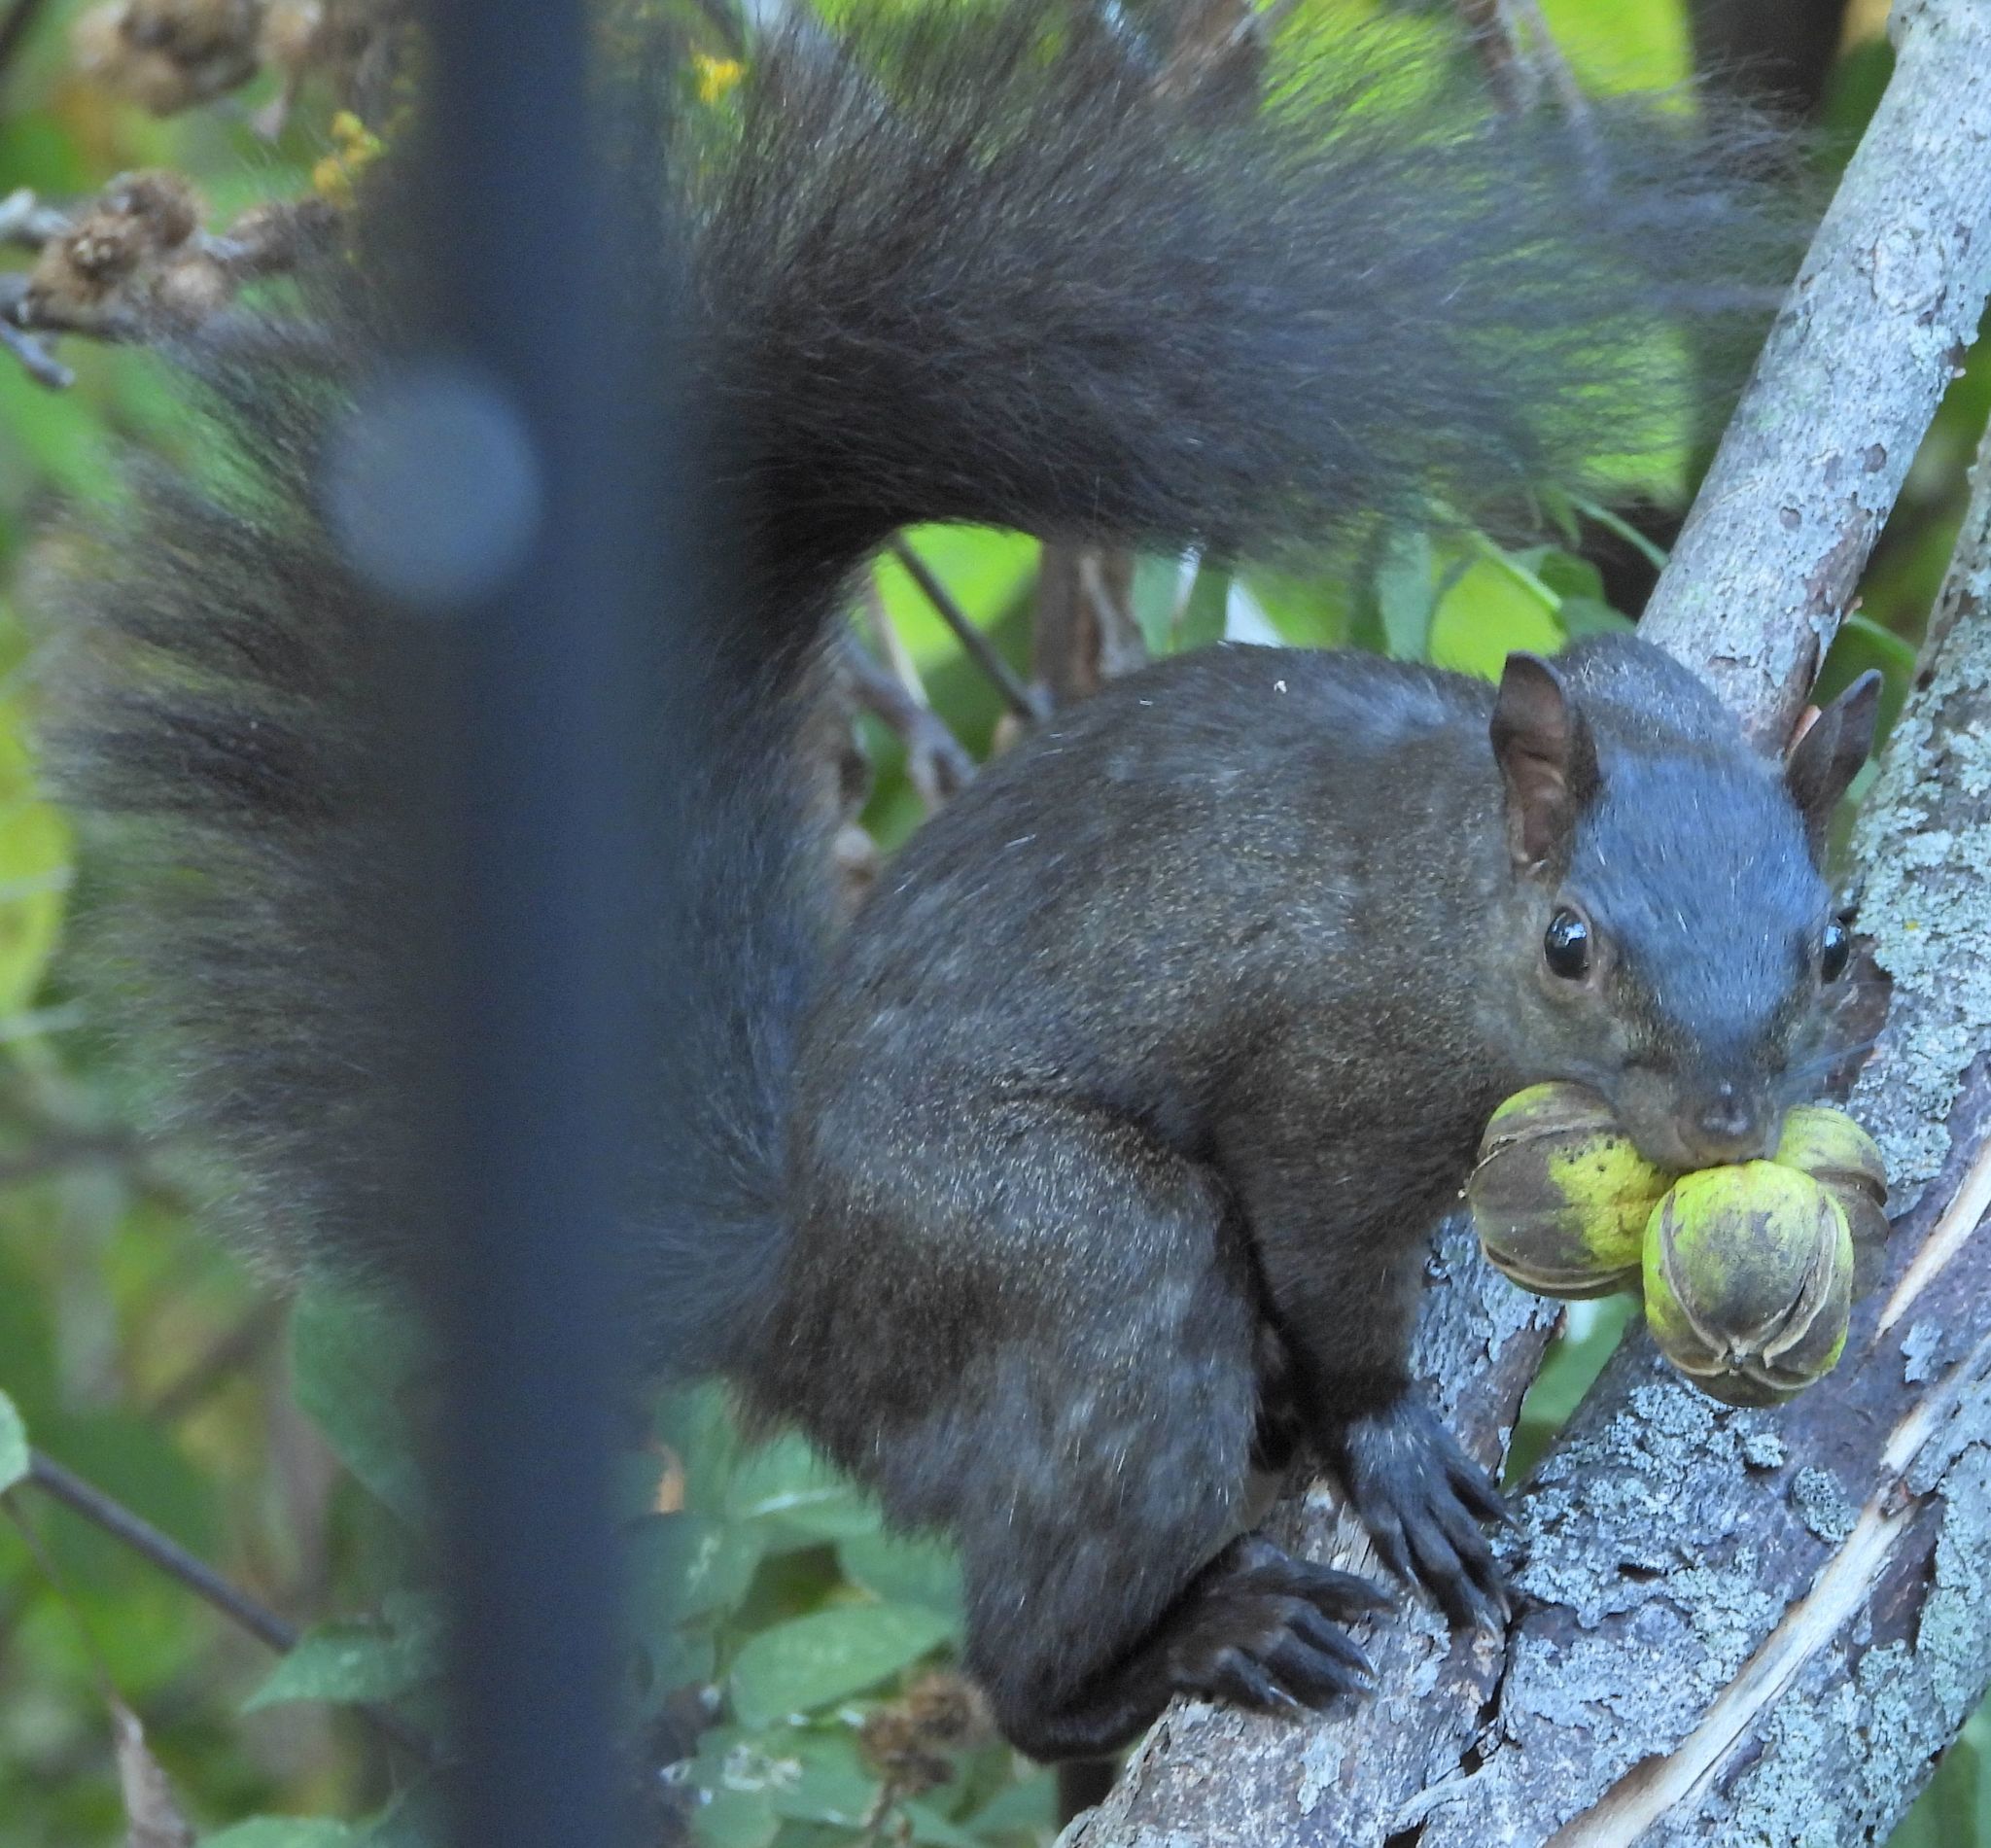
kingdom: Animalia
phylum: Chordata
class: Mammalia
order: Rodentia
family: Sciuridae
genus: Sciurus
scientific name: Sciurus carolinensis
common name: Eastern gray squirrel
